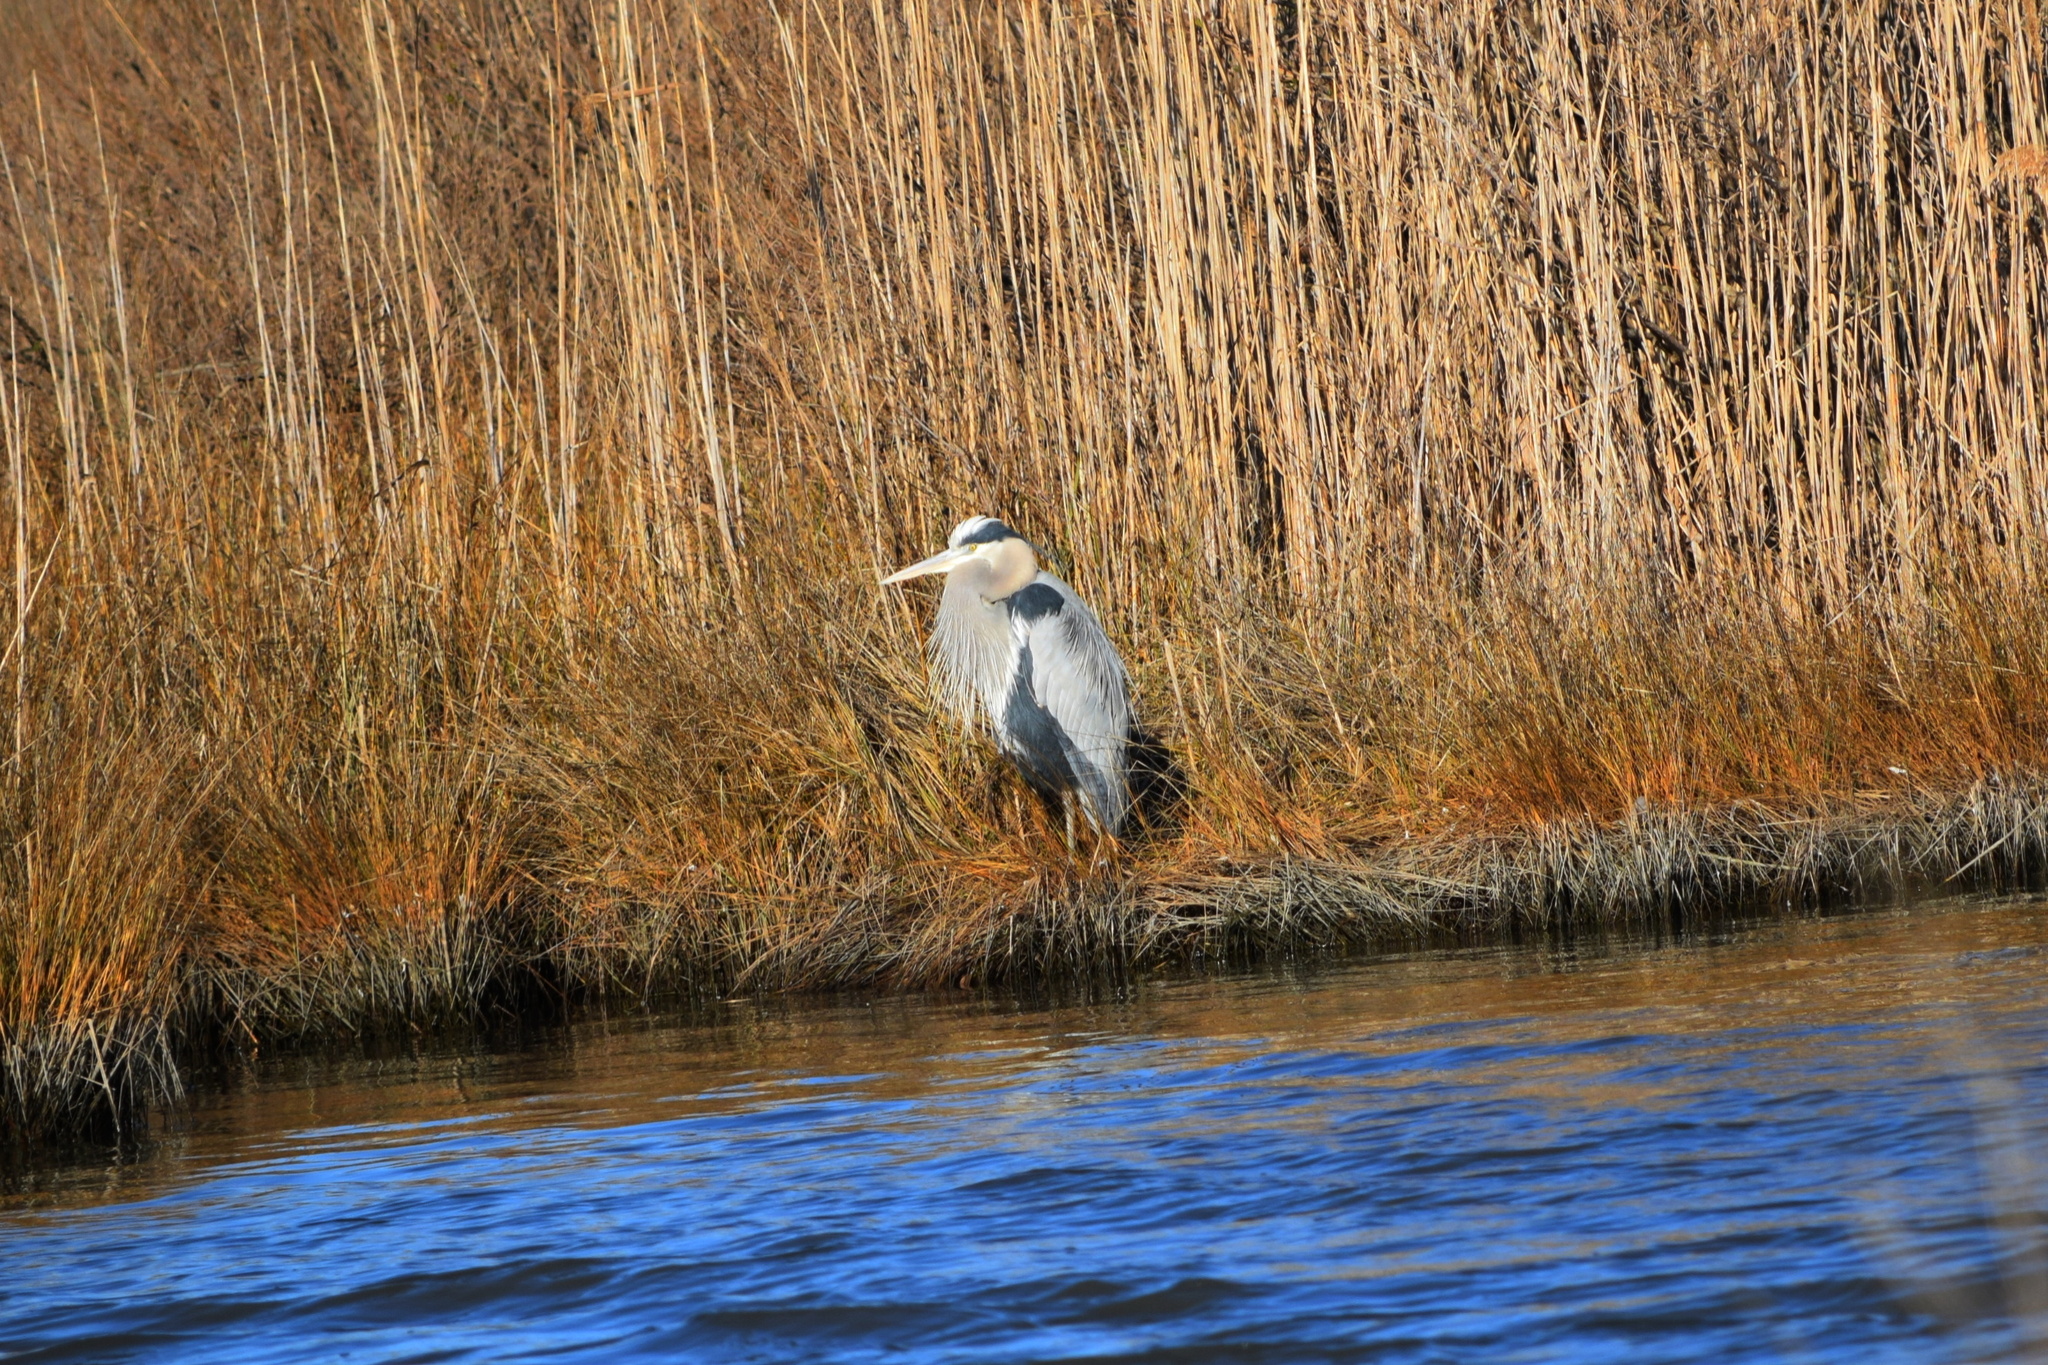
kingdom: Animalia
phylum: Chordata
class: Aves
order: Pelecaniformes
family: Ardeidae
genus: Ardea
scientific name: Ardea herodias
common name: Great blue heron
